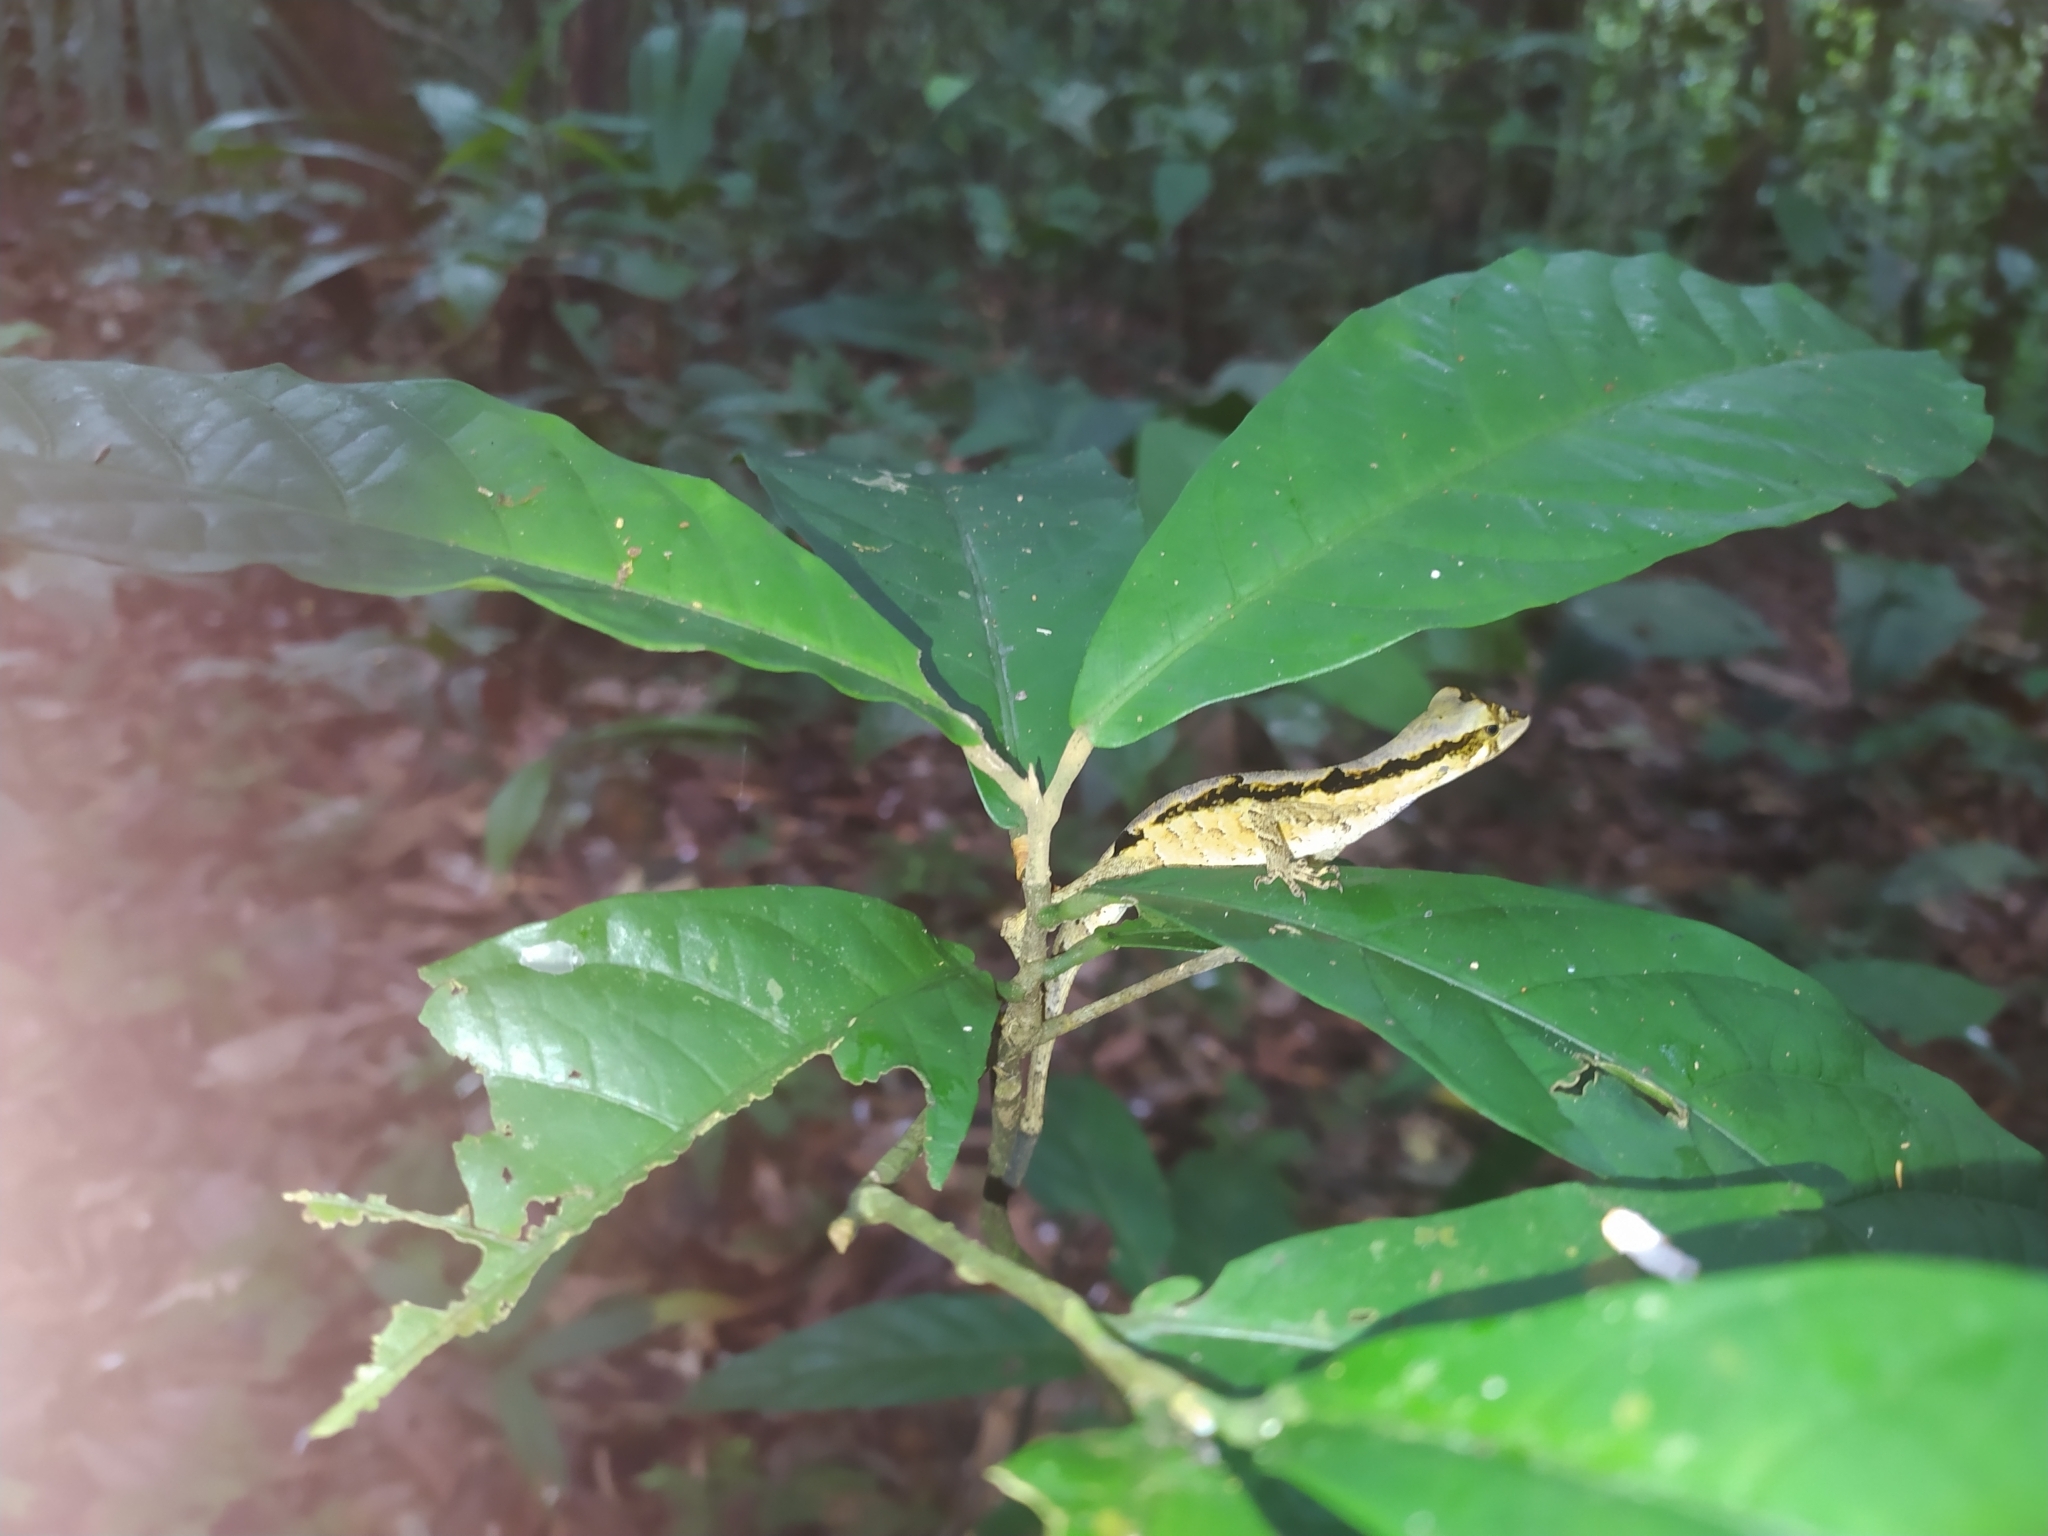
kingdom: Animalia
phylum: Chordata
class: Squamata
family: Dactyloidae
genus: Anolis
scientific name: Anolis chrysolepis
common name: Goldenscale anole
